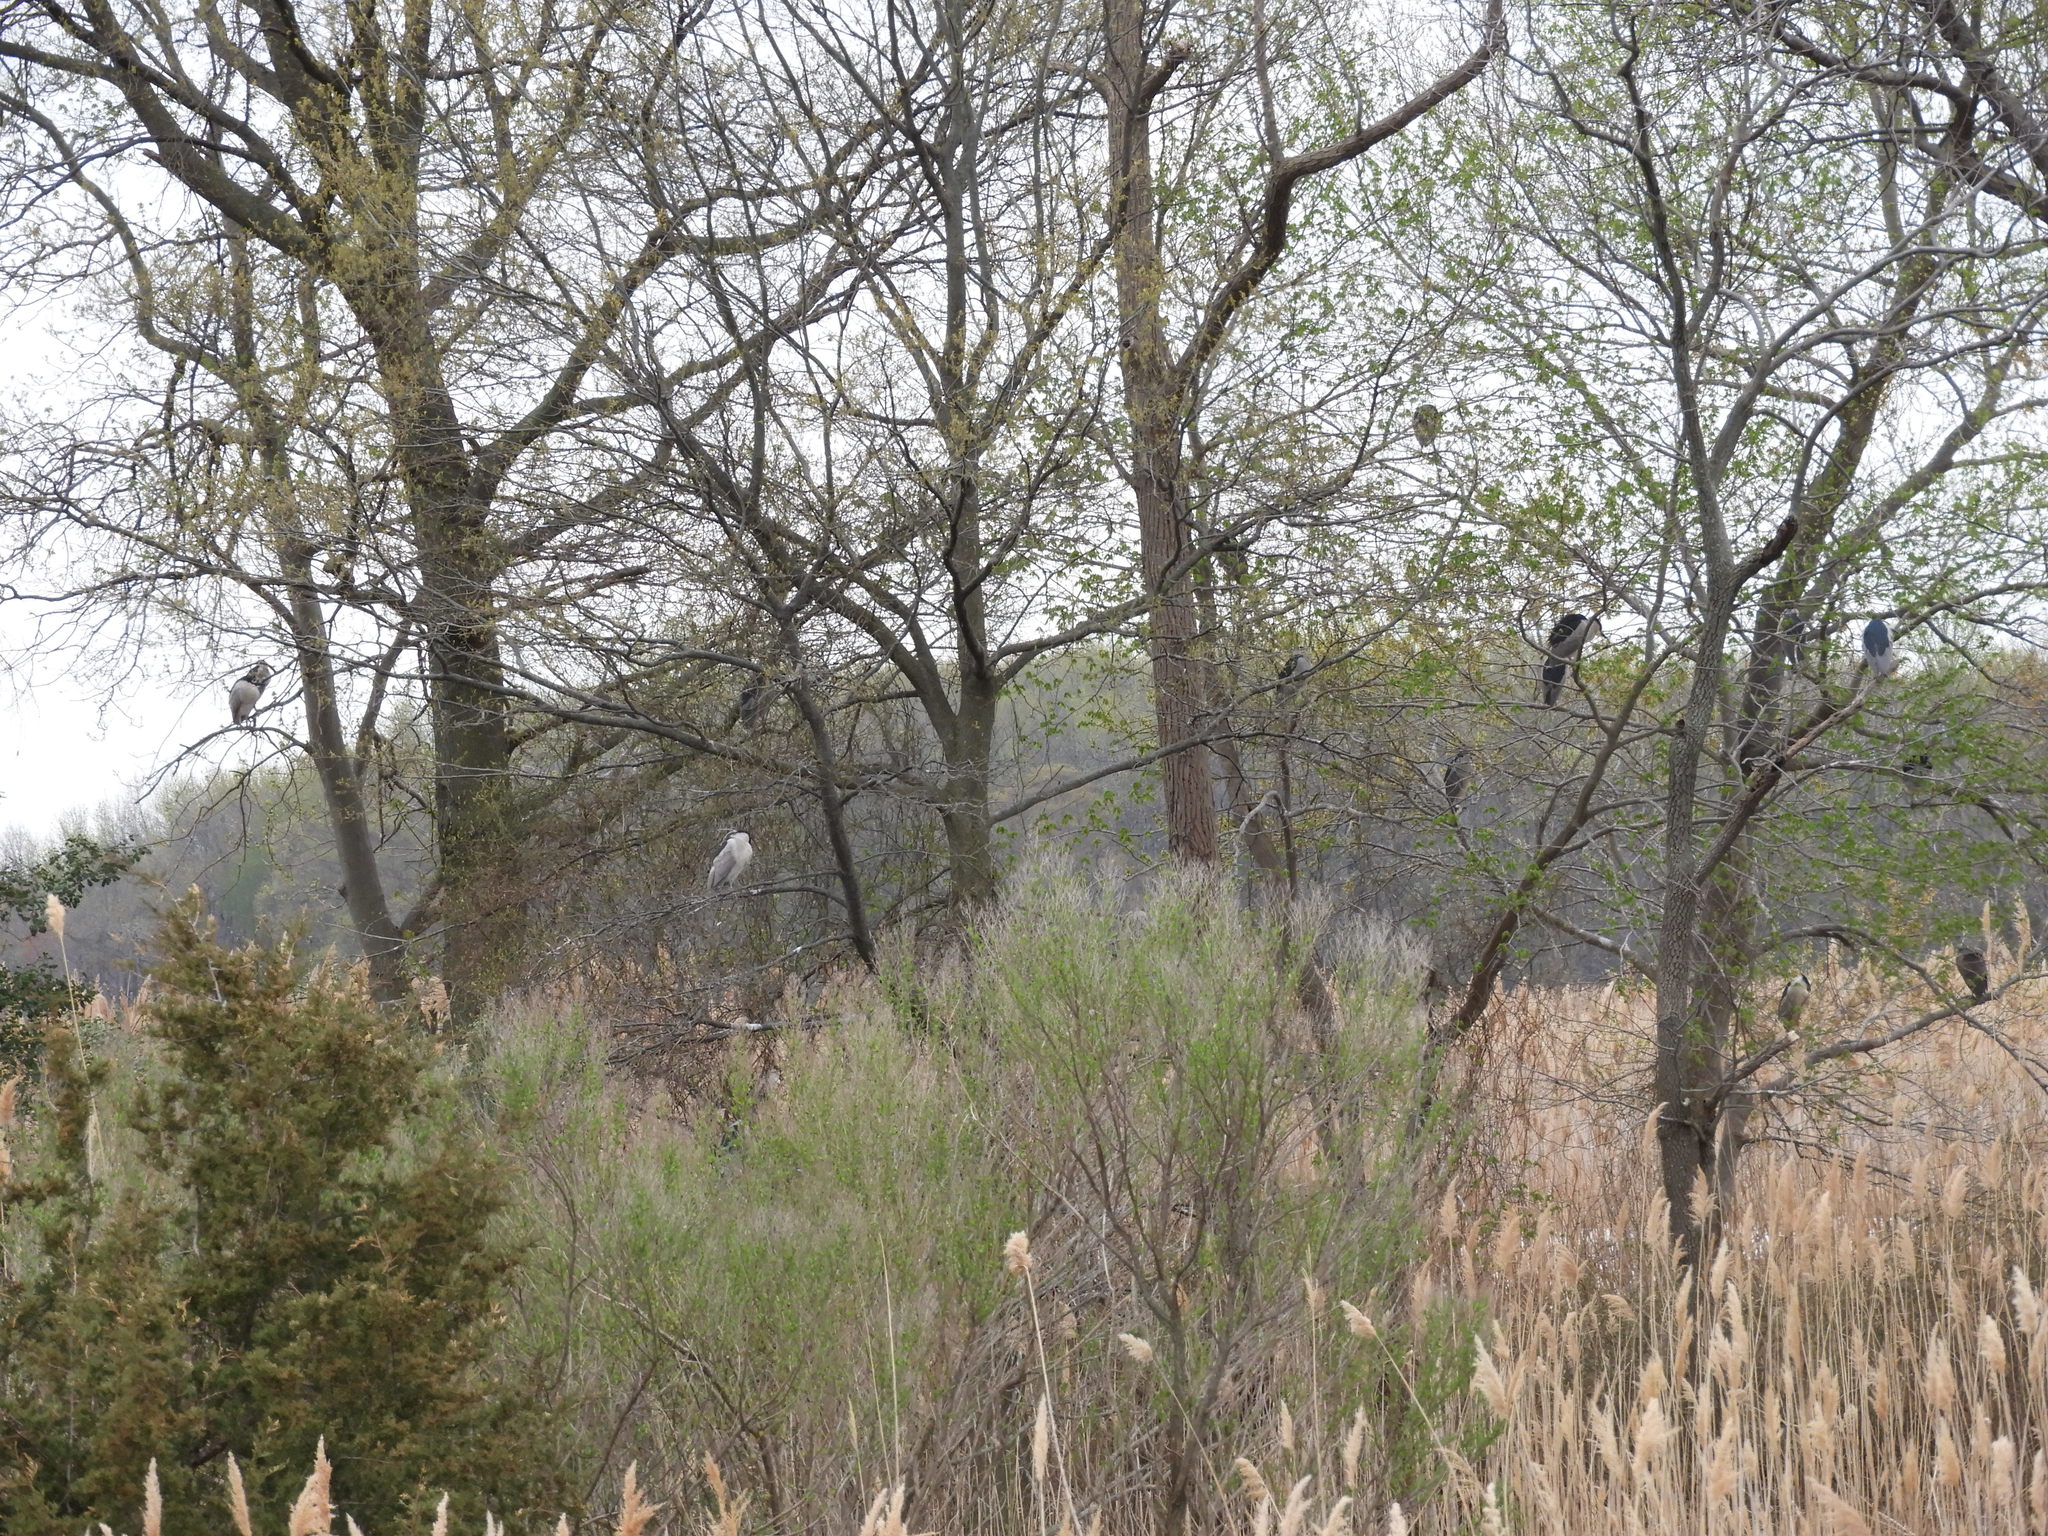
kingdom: Animalia
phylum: Chordata
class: Aves
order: Pelecaniformes
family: Ardeidae
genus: Nycticorax
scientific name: Nycticorax nycticorax
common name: Black-crowned night heron
